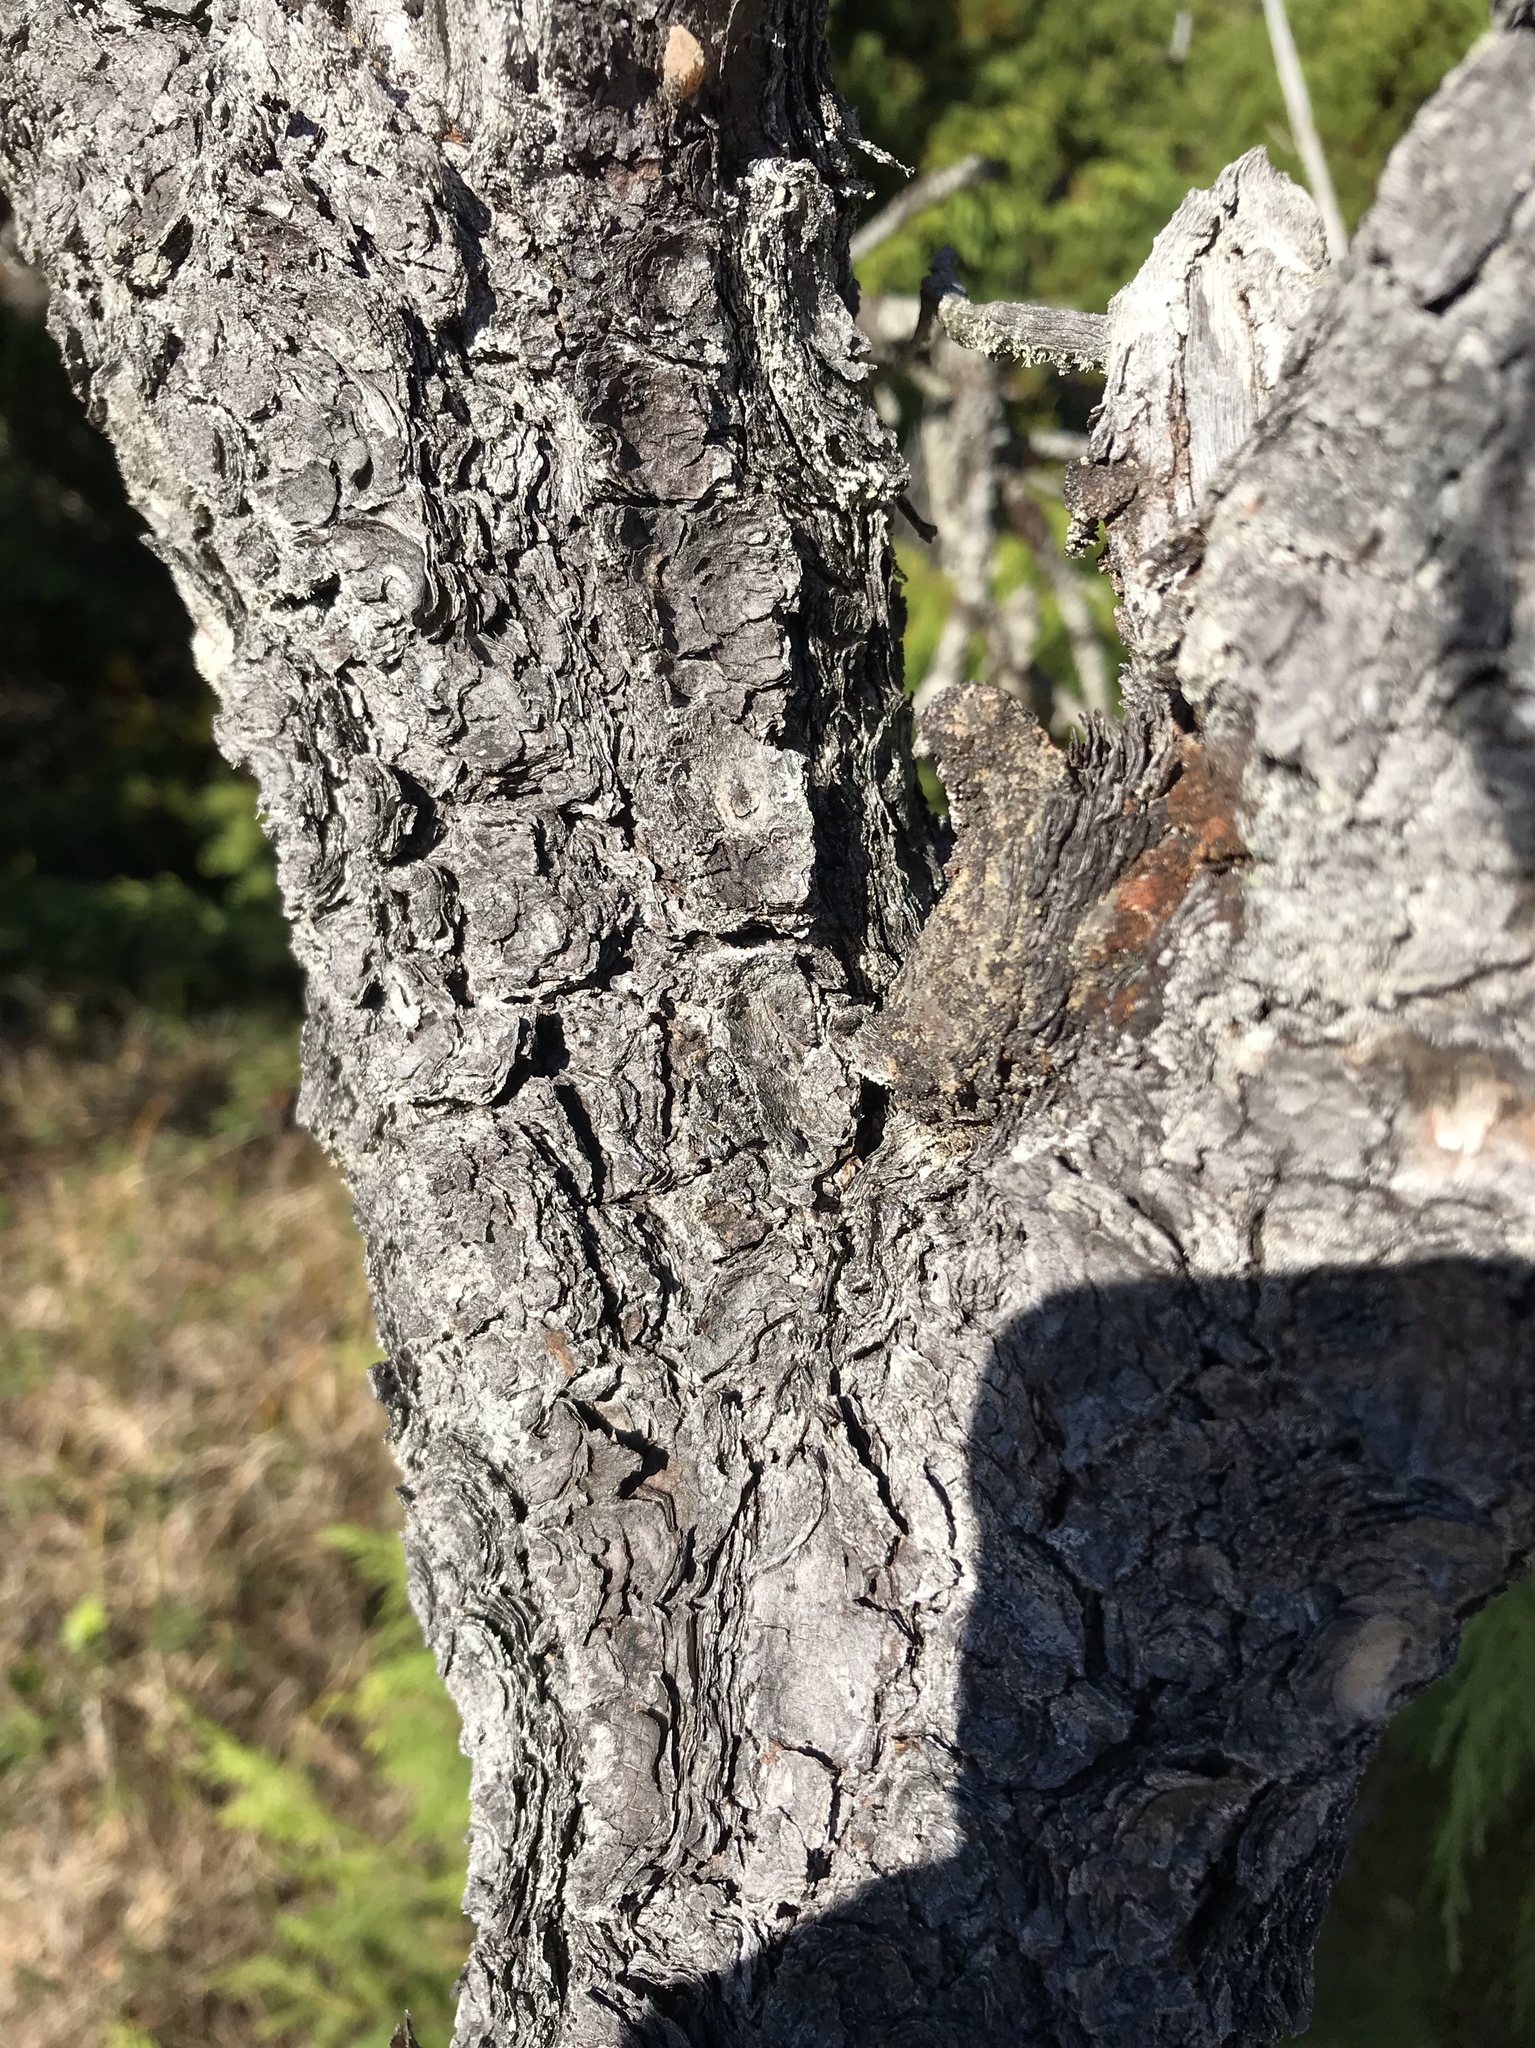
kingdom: Plantae
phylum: Tracheophyta
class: Pinopsida
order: Pinales
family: Pinaceae
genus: Pinus
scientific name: Pinus contorta
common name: Lodgepole pine
